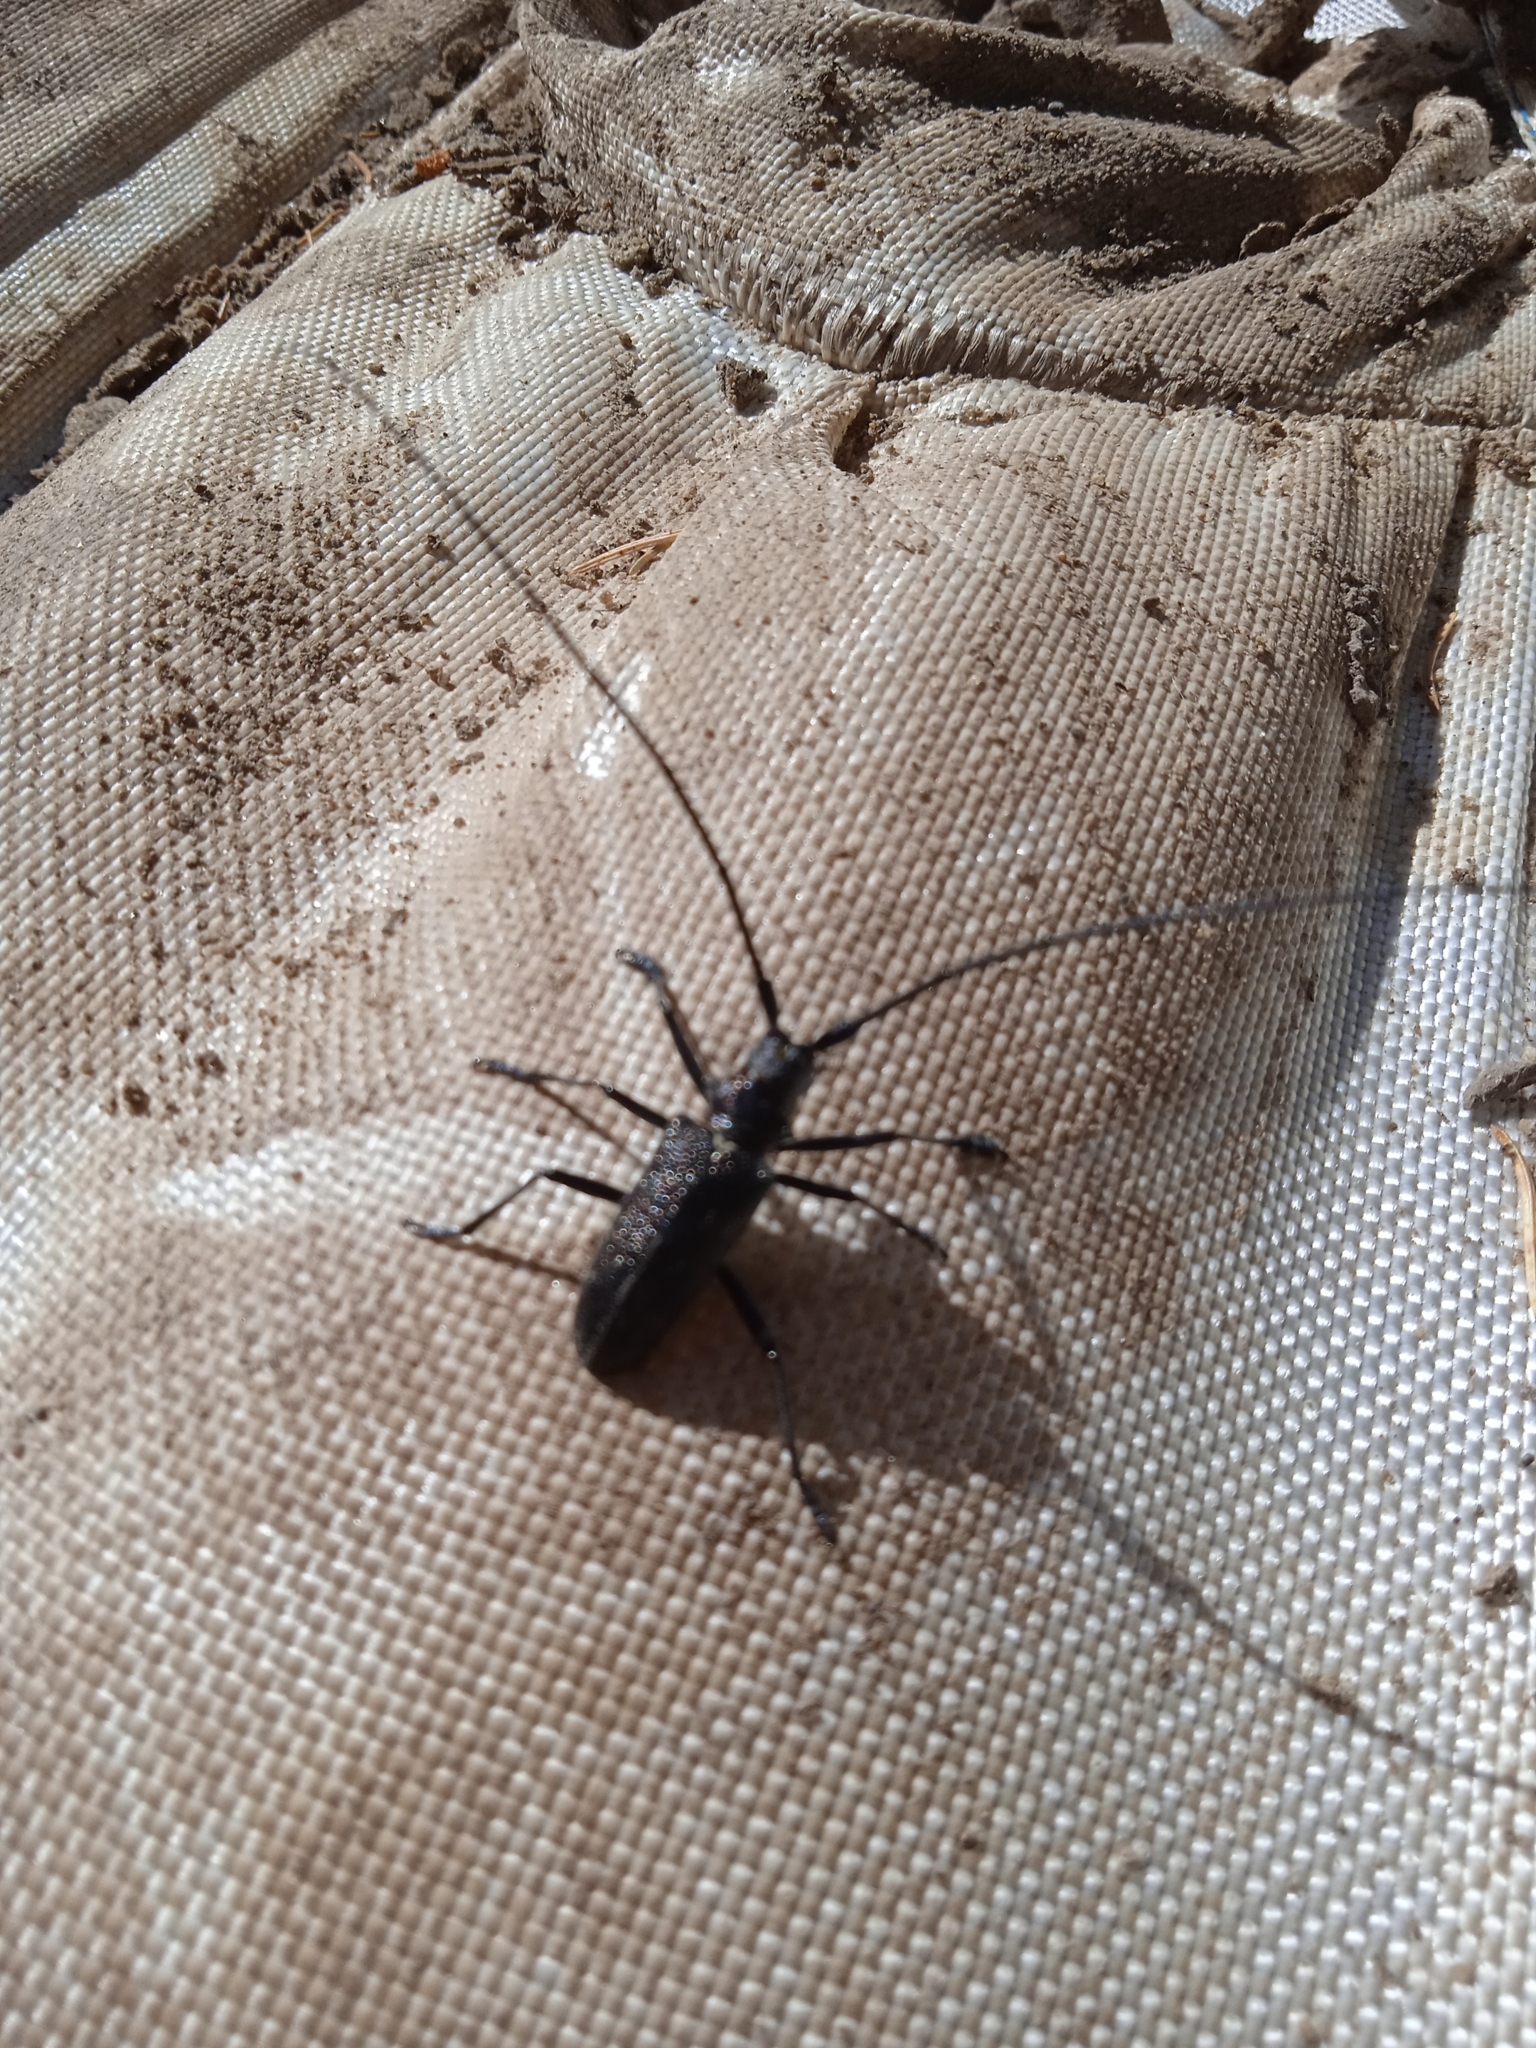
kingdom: Animalia
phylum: Arthropoda
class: Insecta
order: Coleoptera
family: Cerambycidae
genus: Monochamus
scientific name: Monochamus sutor
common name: Pine sawyer
